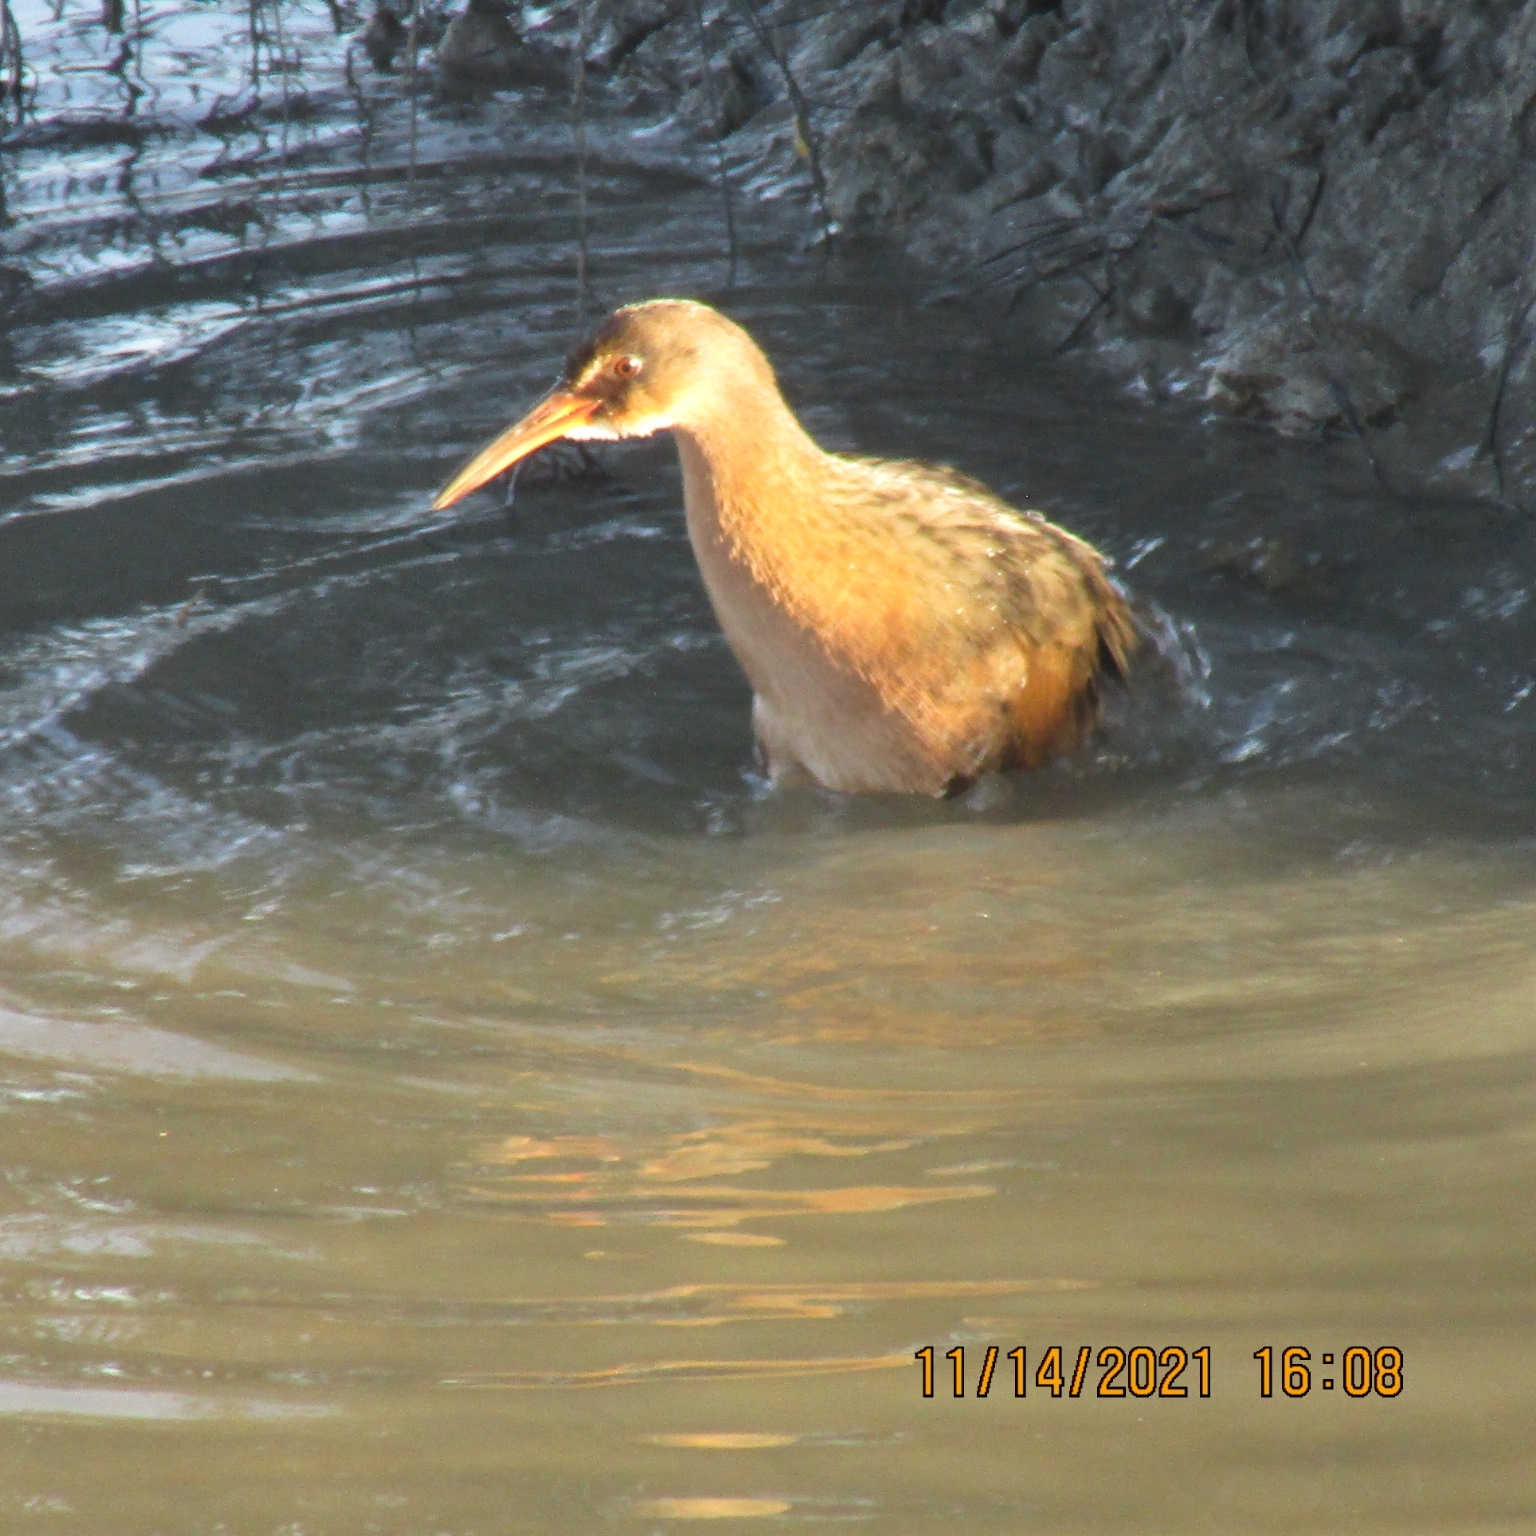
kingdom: Animalia
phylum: Chordata
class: Aves
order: Gruiformes
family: Rallidae
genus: Rallus
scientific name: Rallus obsoletus
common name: Ridgway's rail
